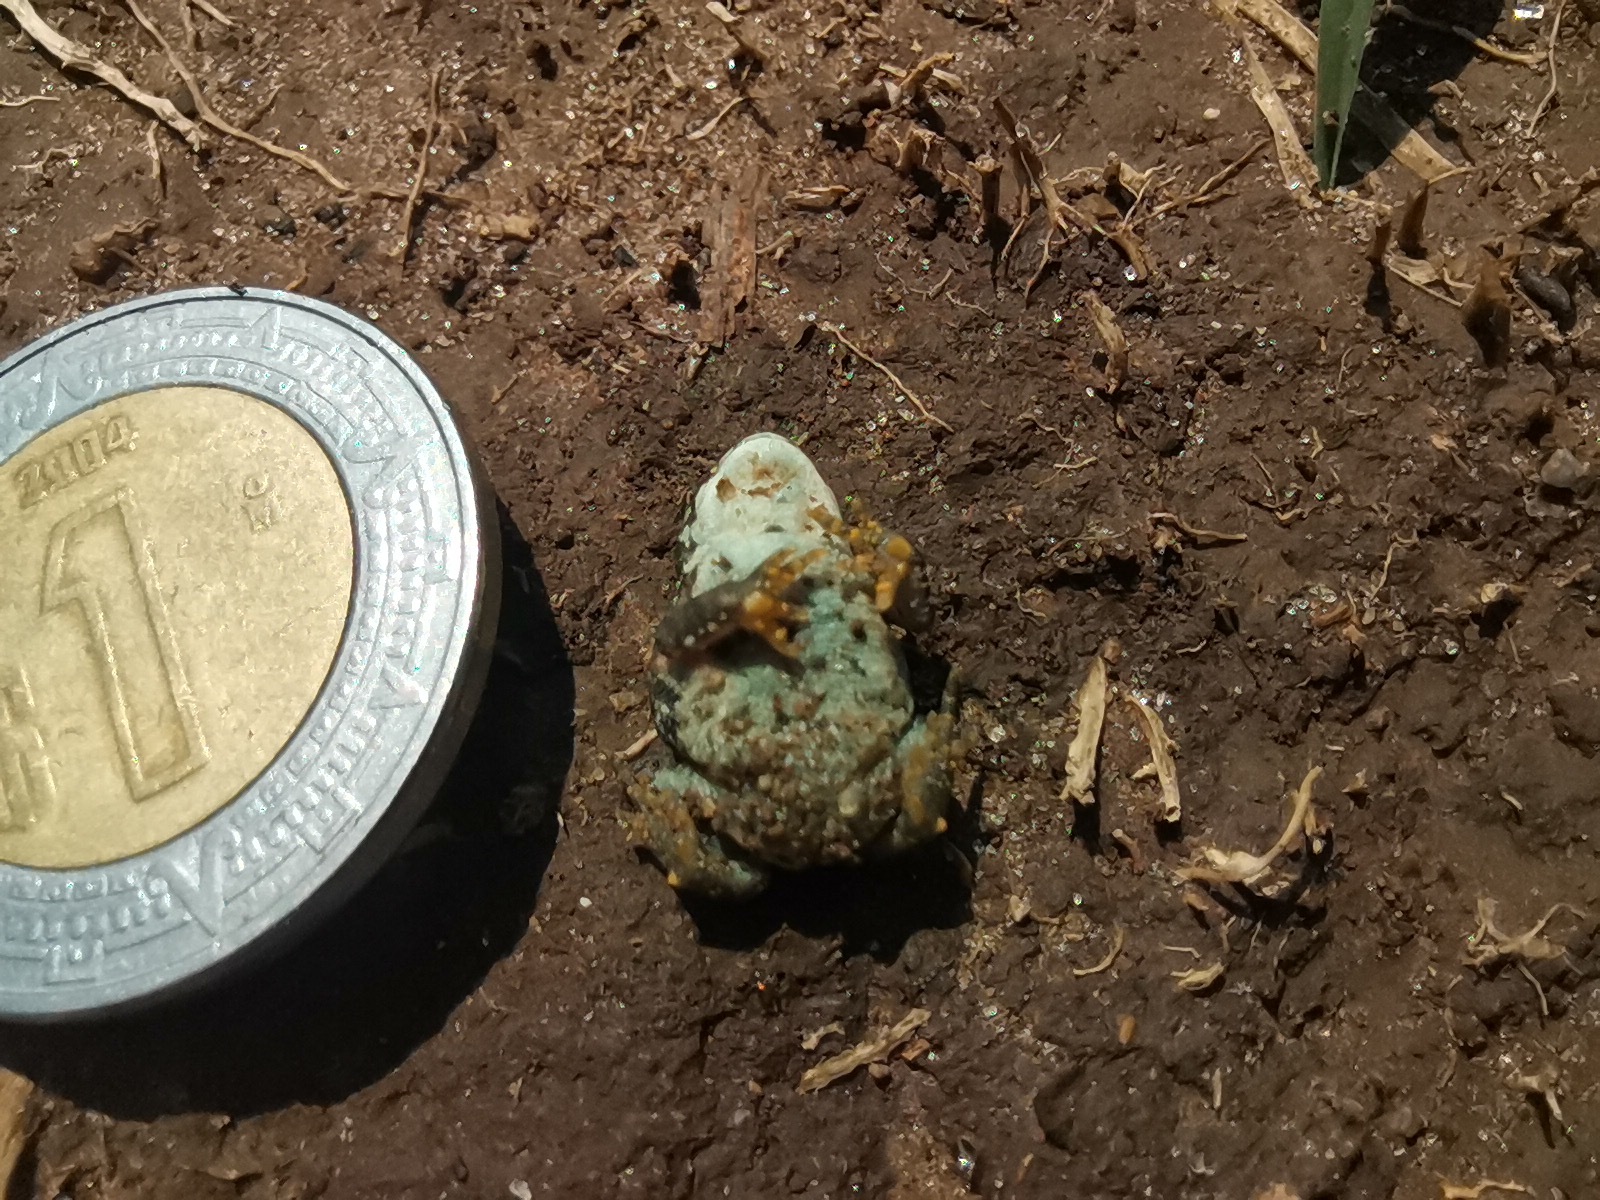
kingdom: Animalia
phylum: Chordata
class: Amphibia
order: Anura
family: Bufonidae
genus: Anaxyrus
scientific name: Anaxyrus compactilis
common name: Plateau toad
